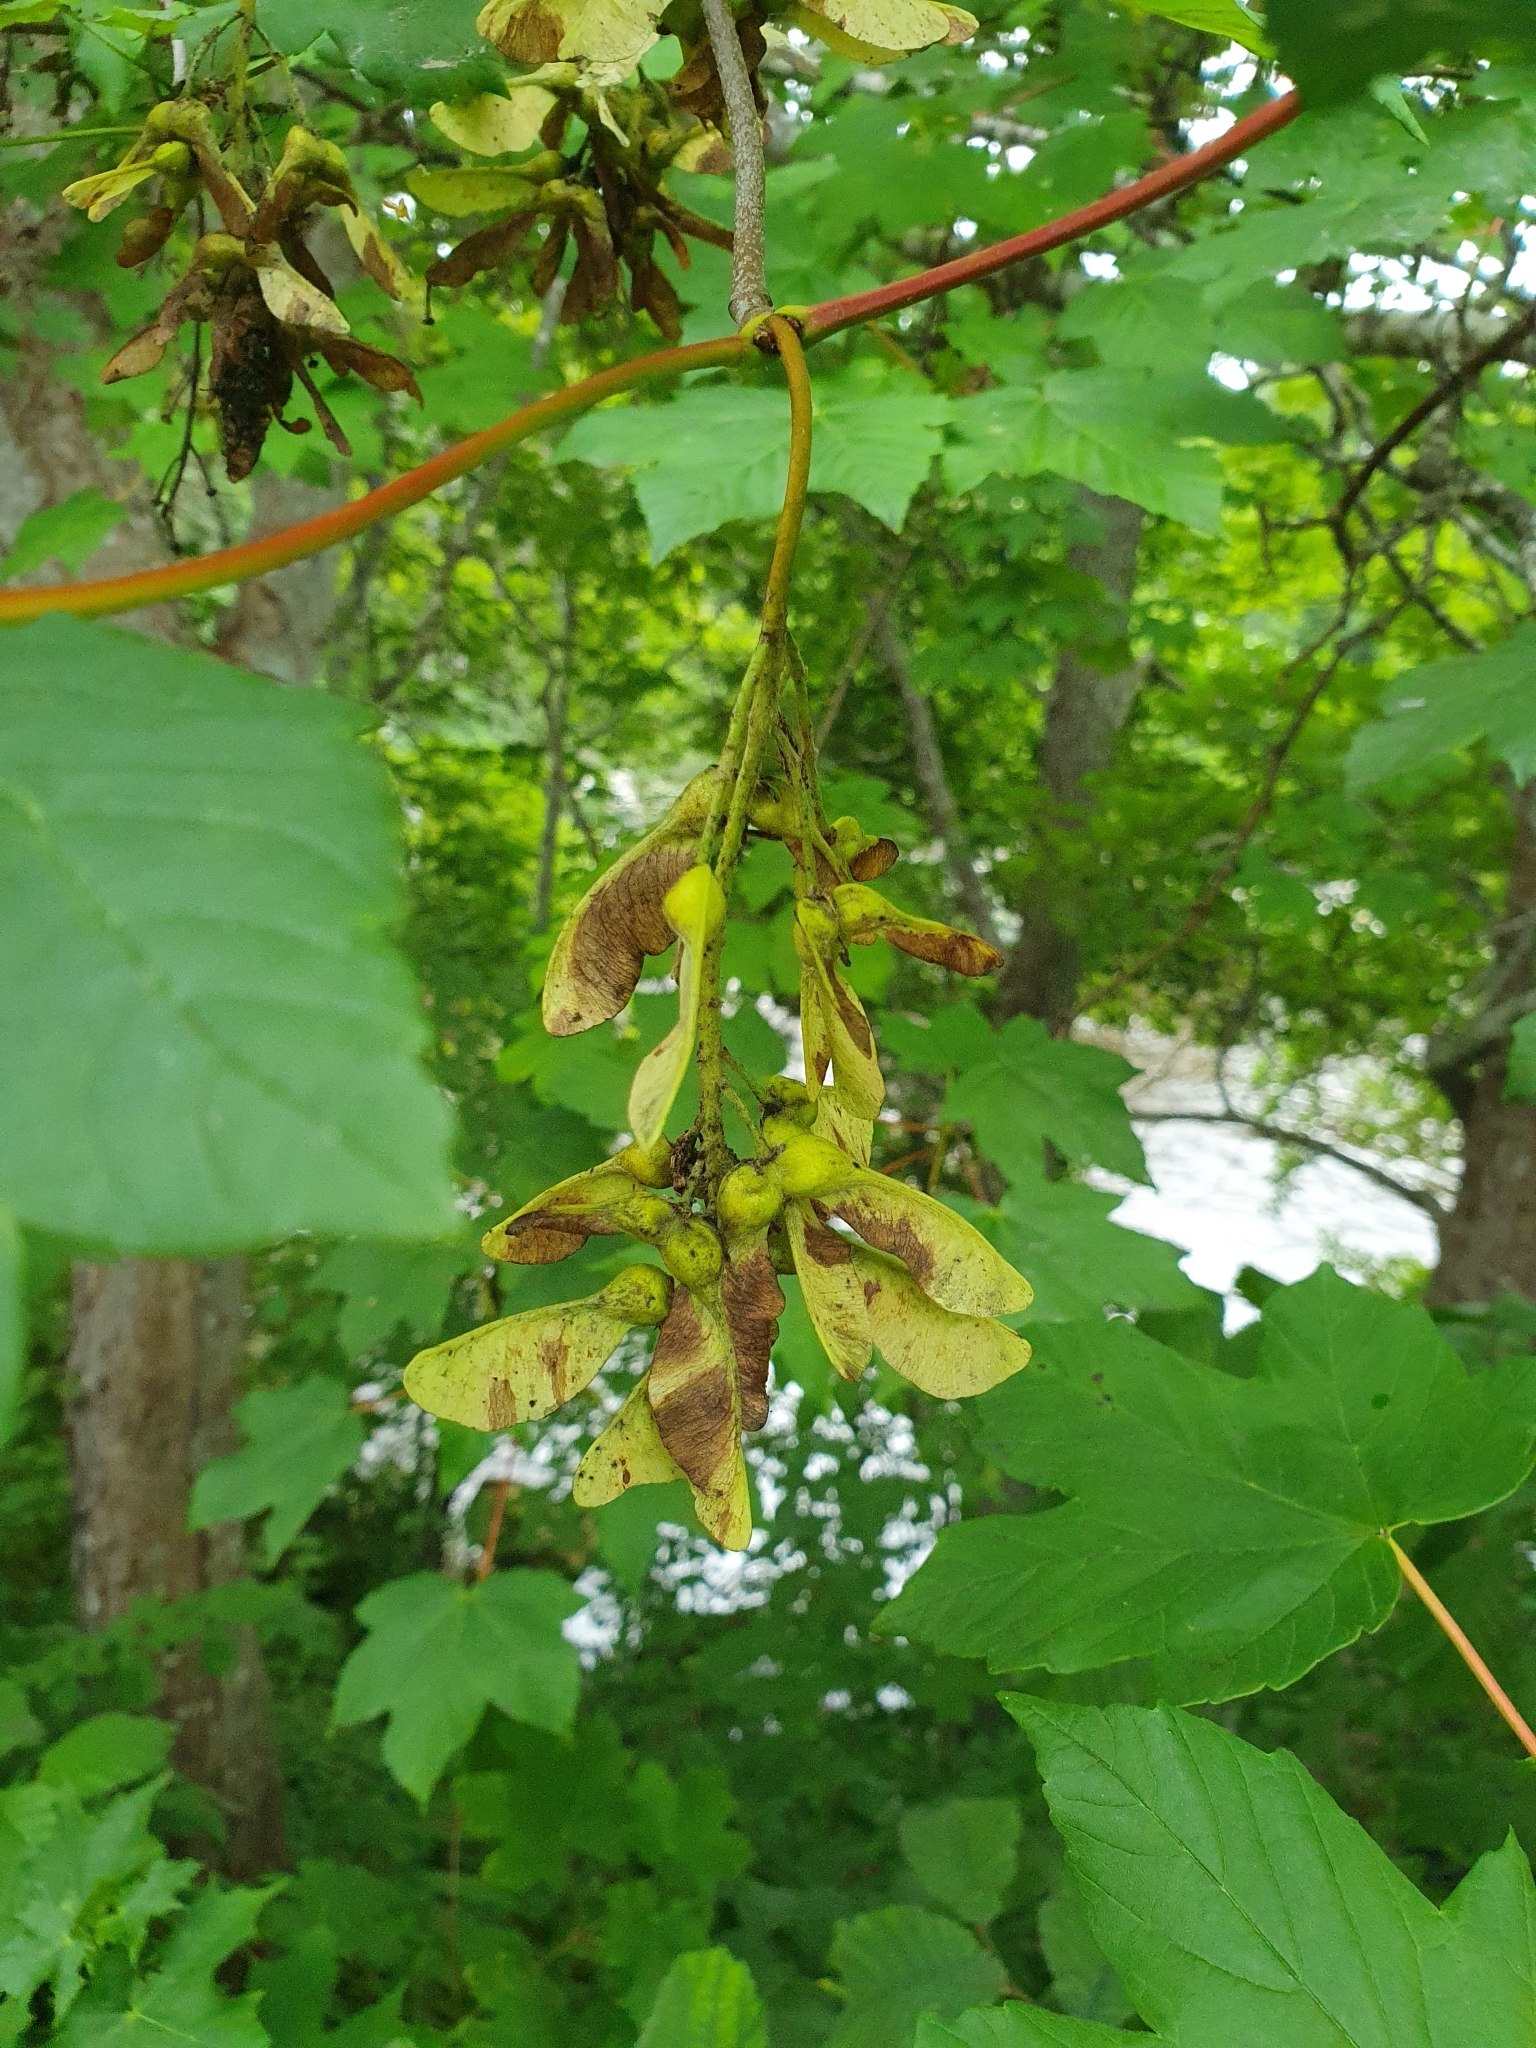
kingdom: Plantae
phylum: Tracheophyta
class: Magnoliopsida
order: Sapindales
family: Sapindaceae
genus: Acer
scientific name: Acer pseudoplatanus
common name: Sycamore
